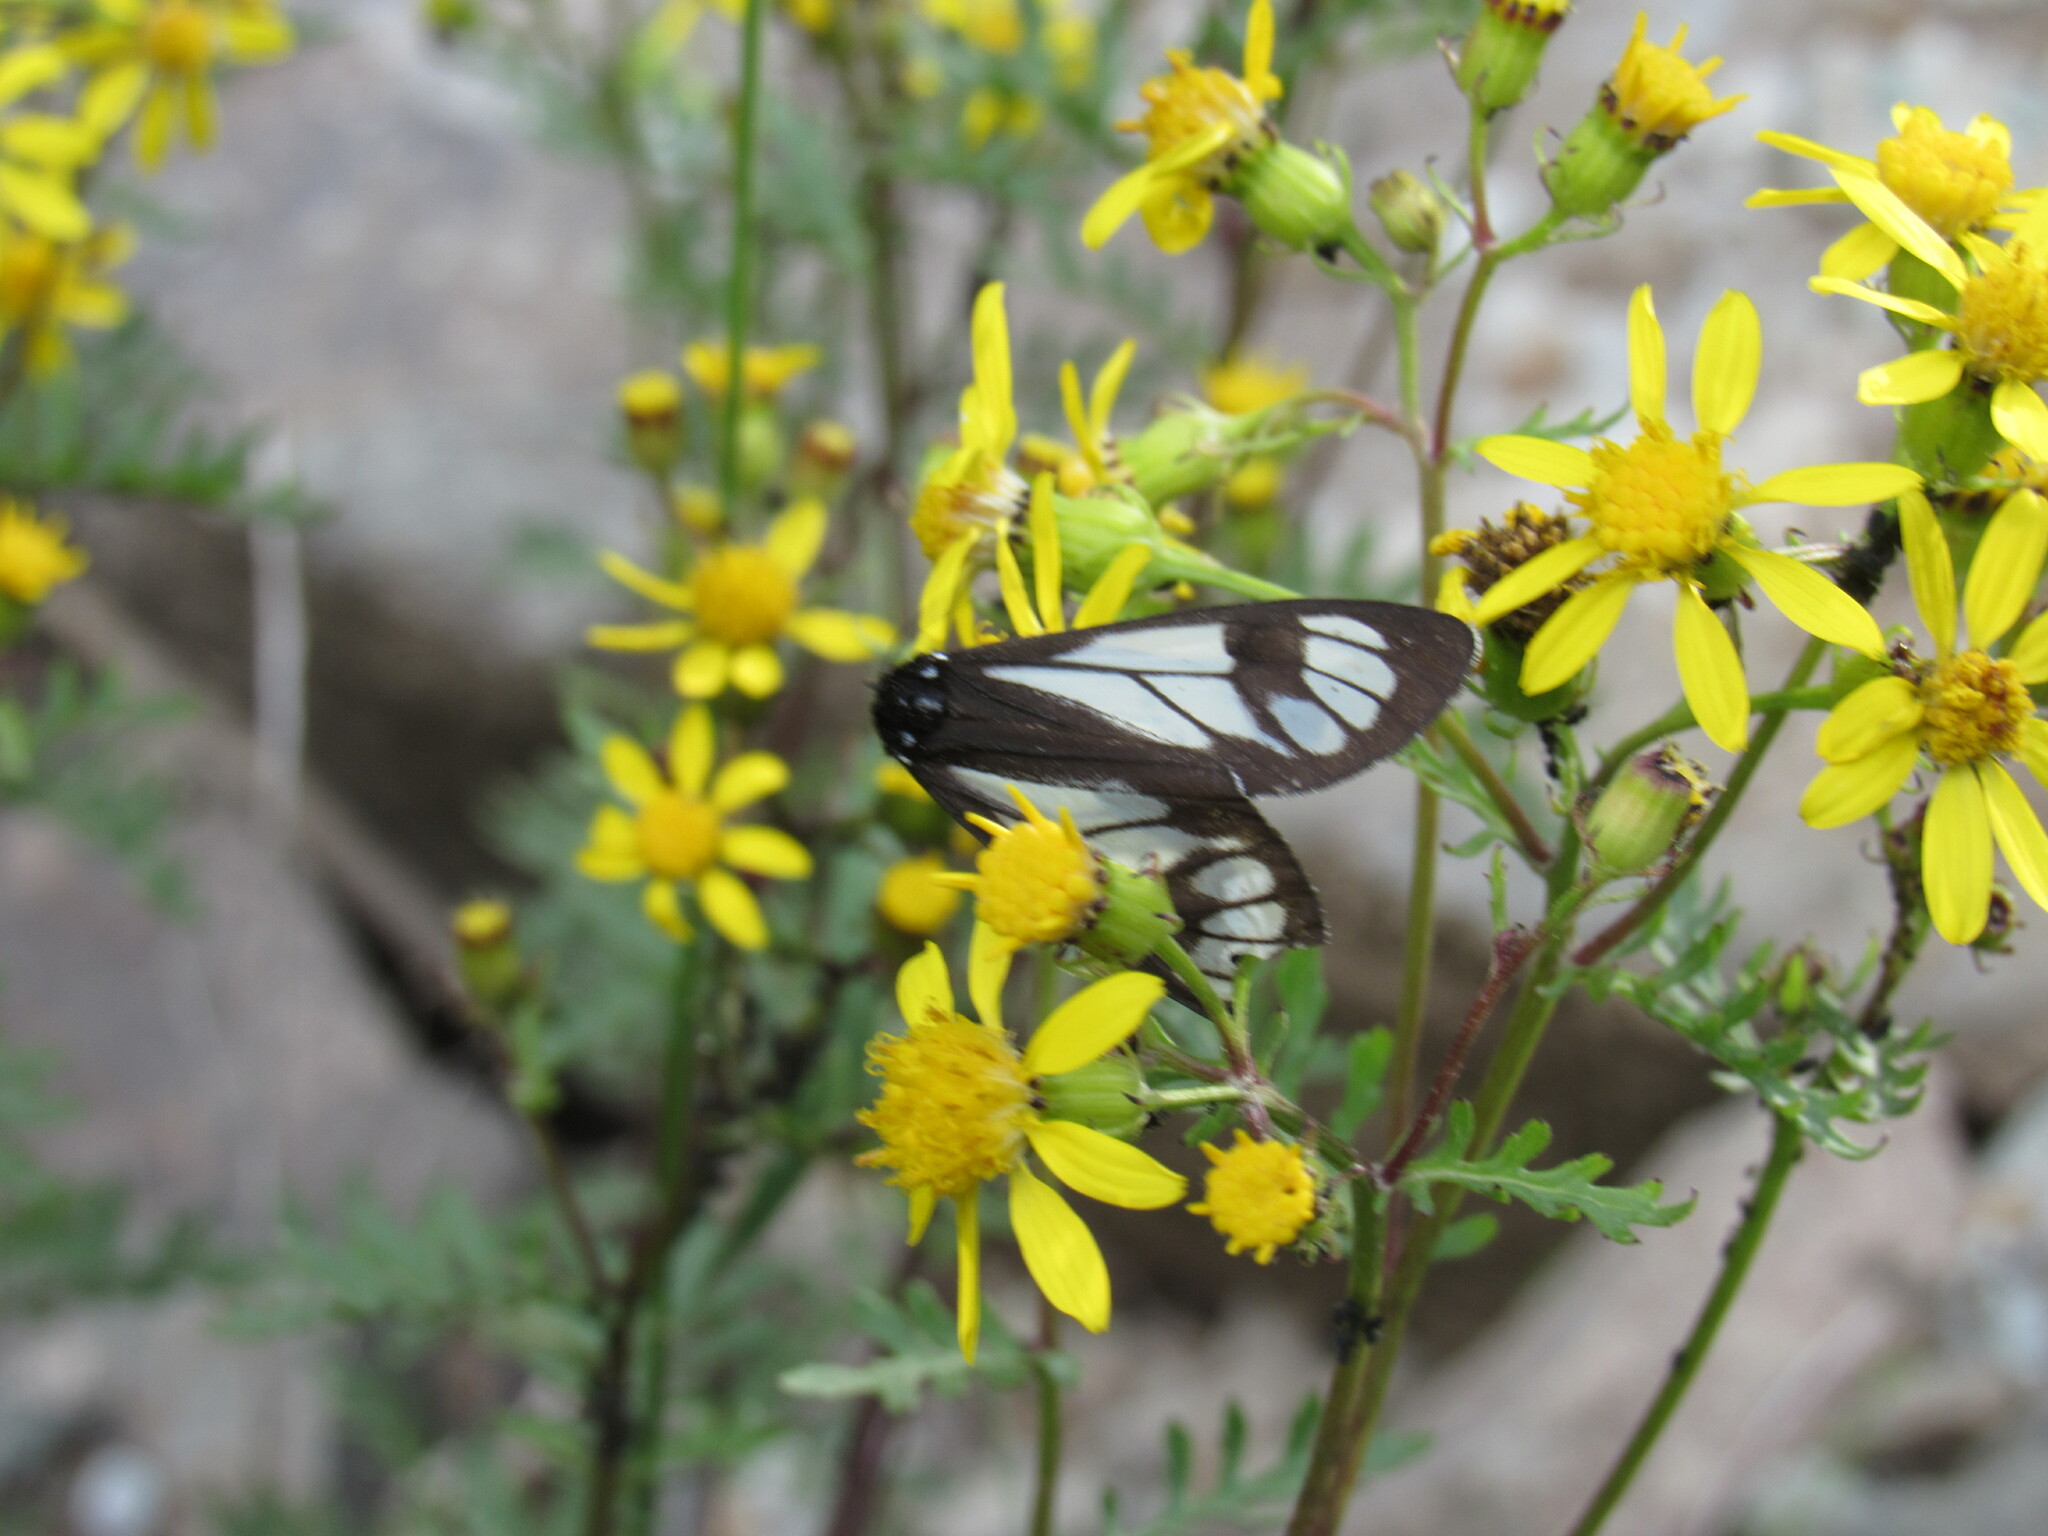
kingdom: Animalia
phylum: Arthropoda
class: Insecta
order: Lepidoptera
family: Erebidae
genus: Gnophaela
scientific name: Gnophaela vermiculata
